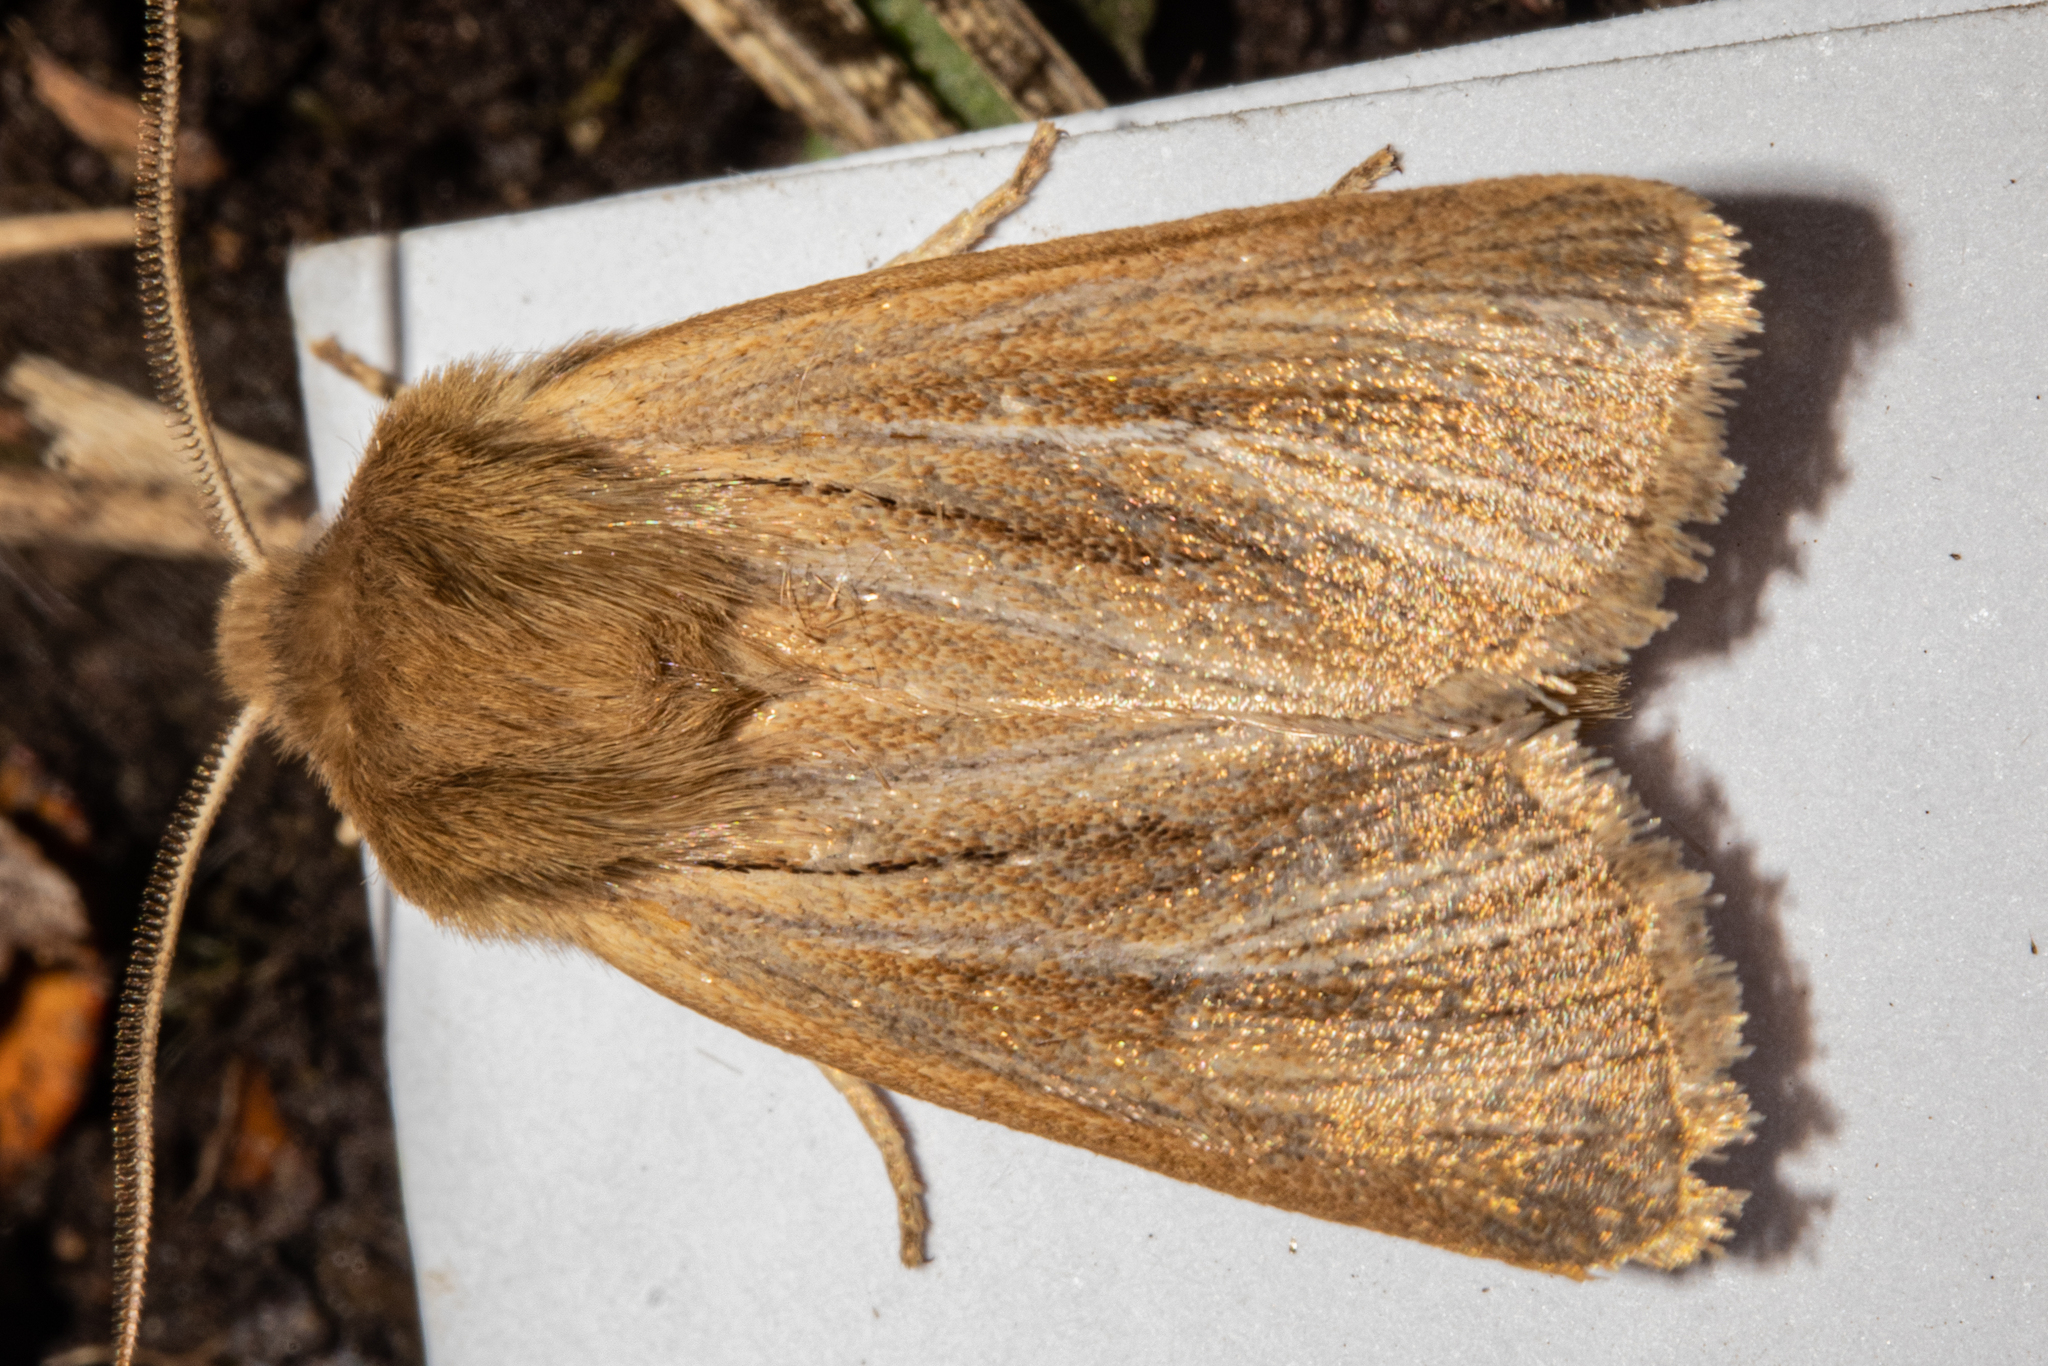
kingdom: Animalia
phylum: Arthropoda
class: Insecta
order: Lepidoptera
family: Noctuidae
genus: Ichneutica
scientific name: Ichneutica
